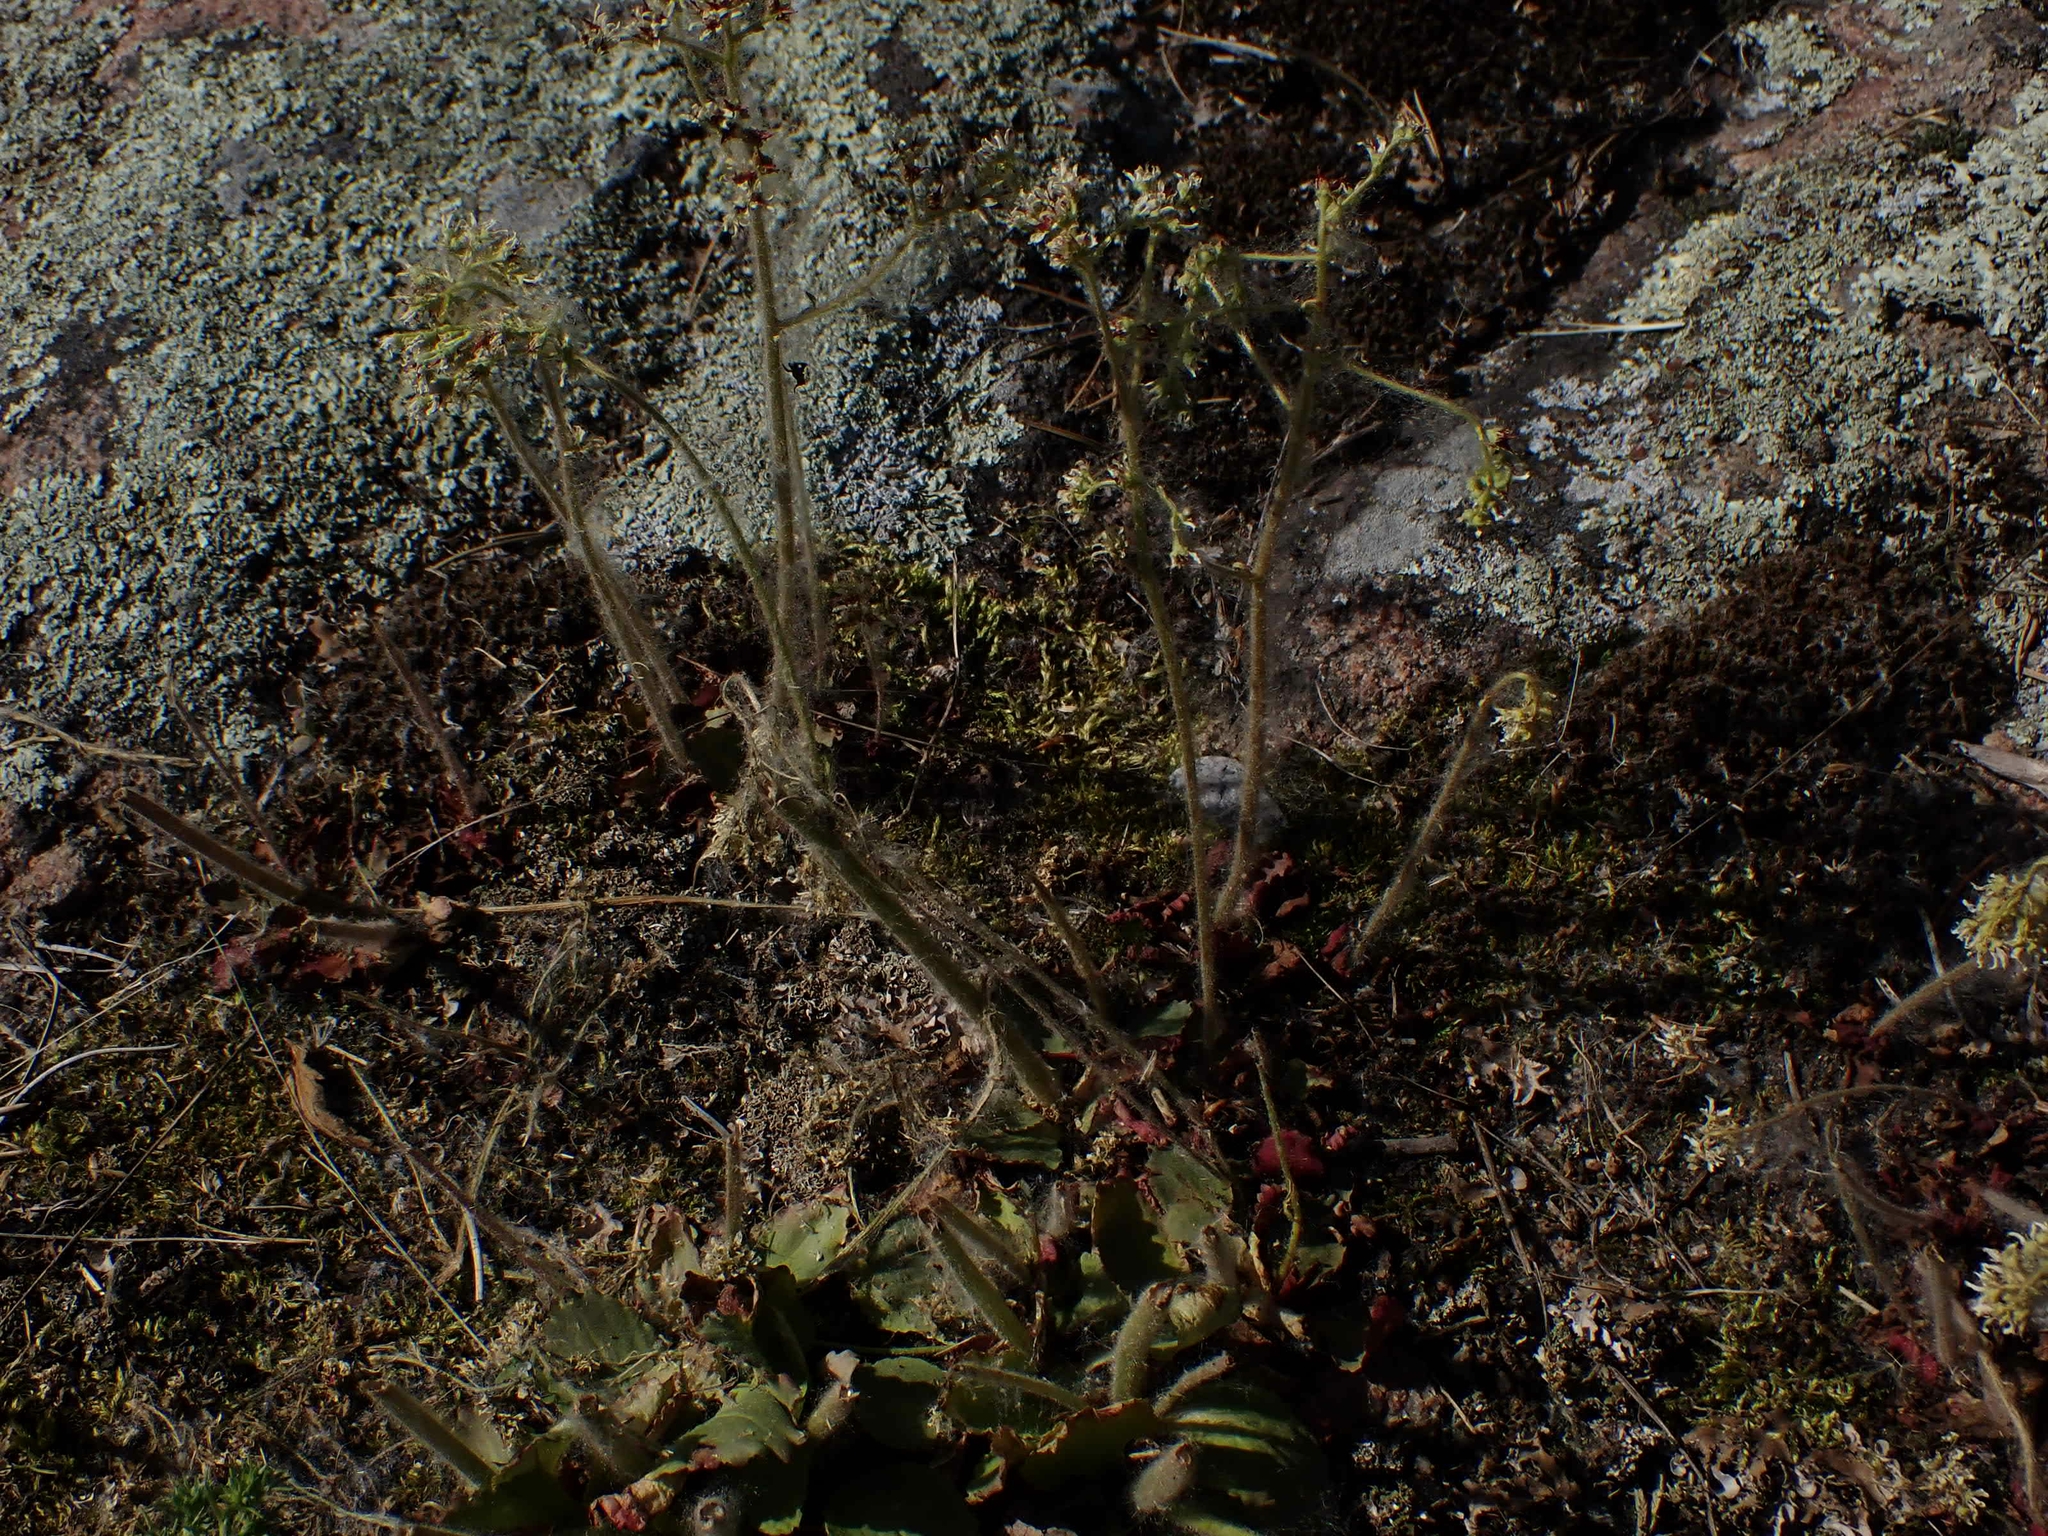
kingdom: Plantae
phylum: Tracheophyta
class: Magnoliopsida
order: Saxifragales
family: Saxifragaceae
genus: Micranthes
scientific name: Micranthes virginiensis
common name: Early saxifrage
